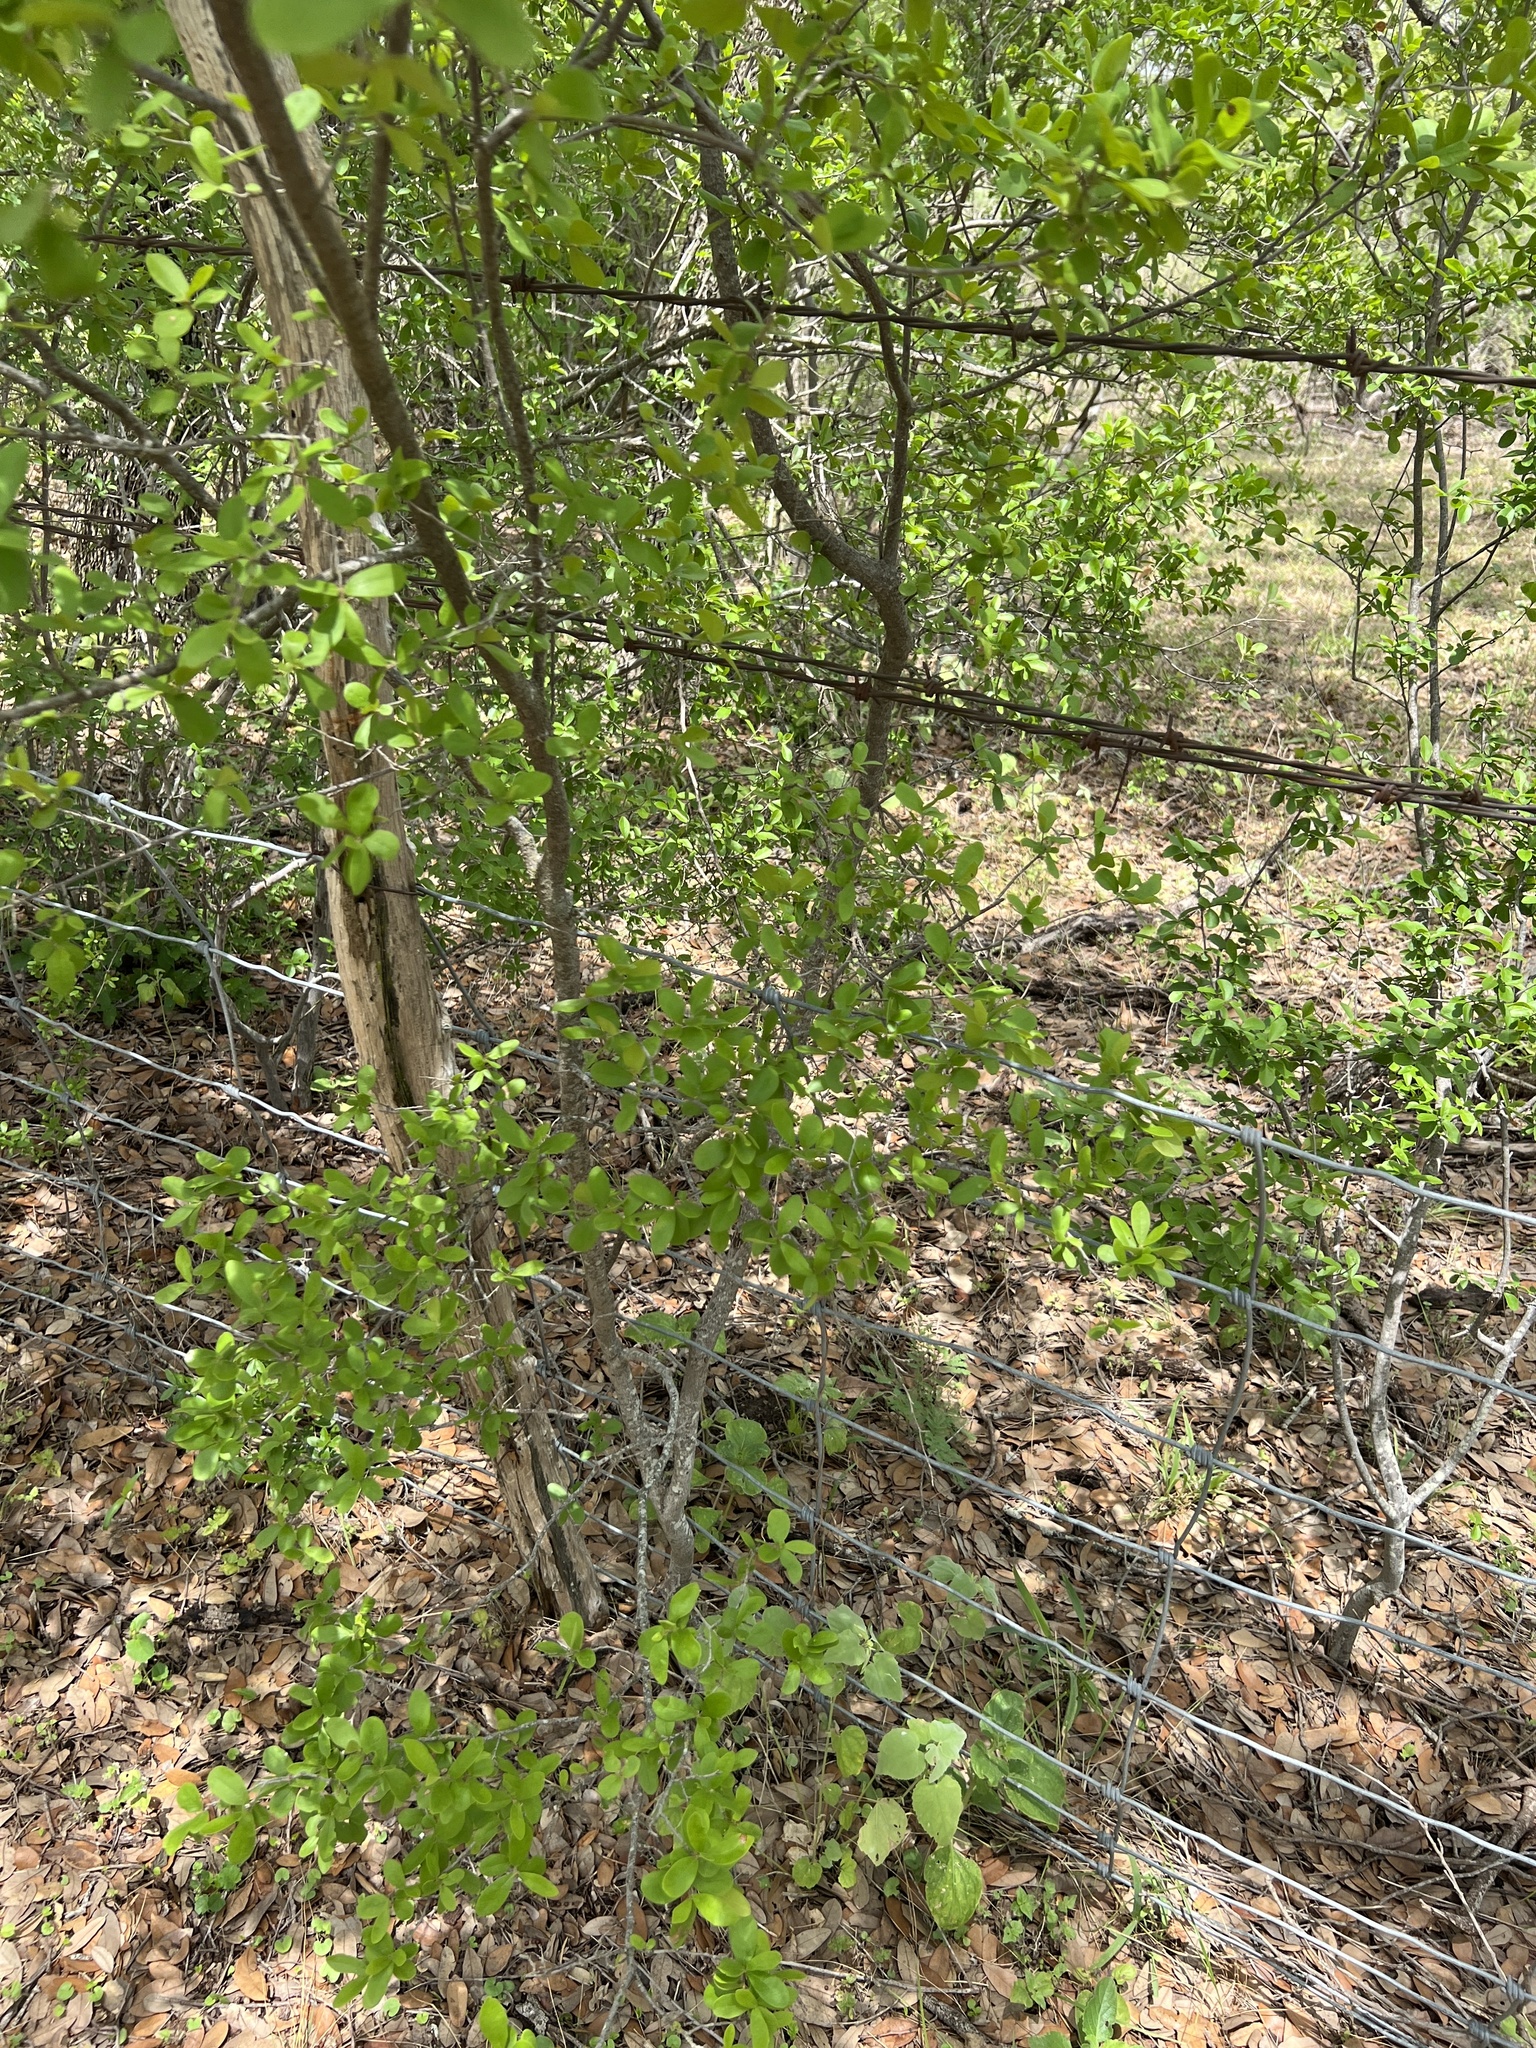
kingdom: Plantae
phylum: Tracheophyta
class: Magnoliopsida
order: Ericales
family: Ebenaceae
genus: Diospyros
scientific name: Diospyros texana
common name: Texas persimmon
